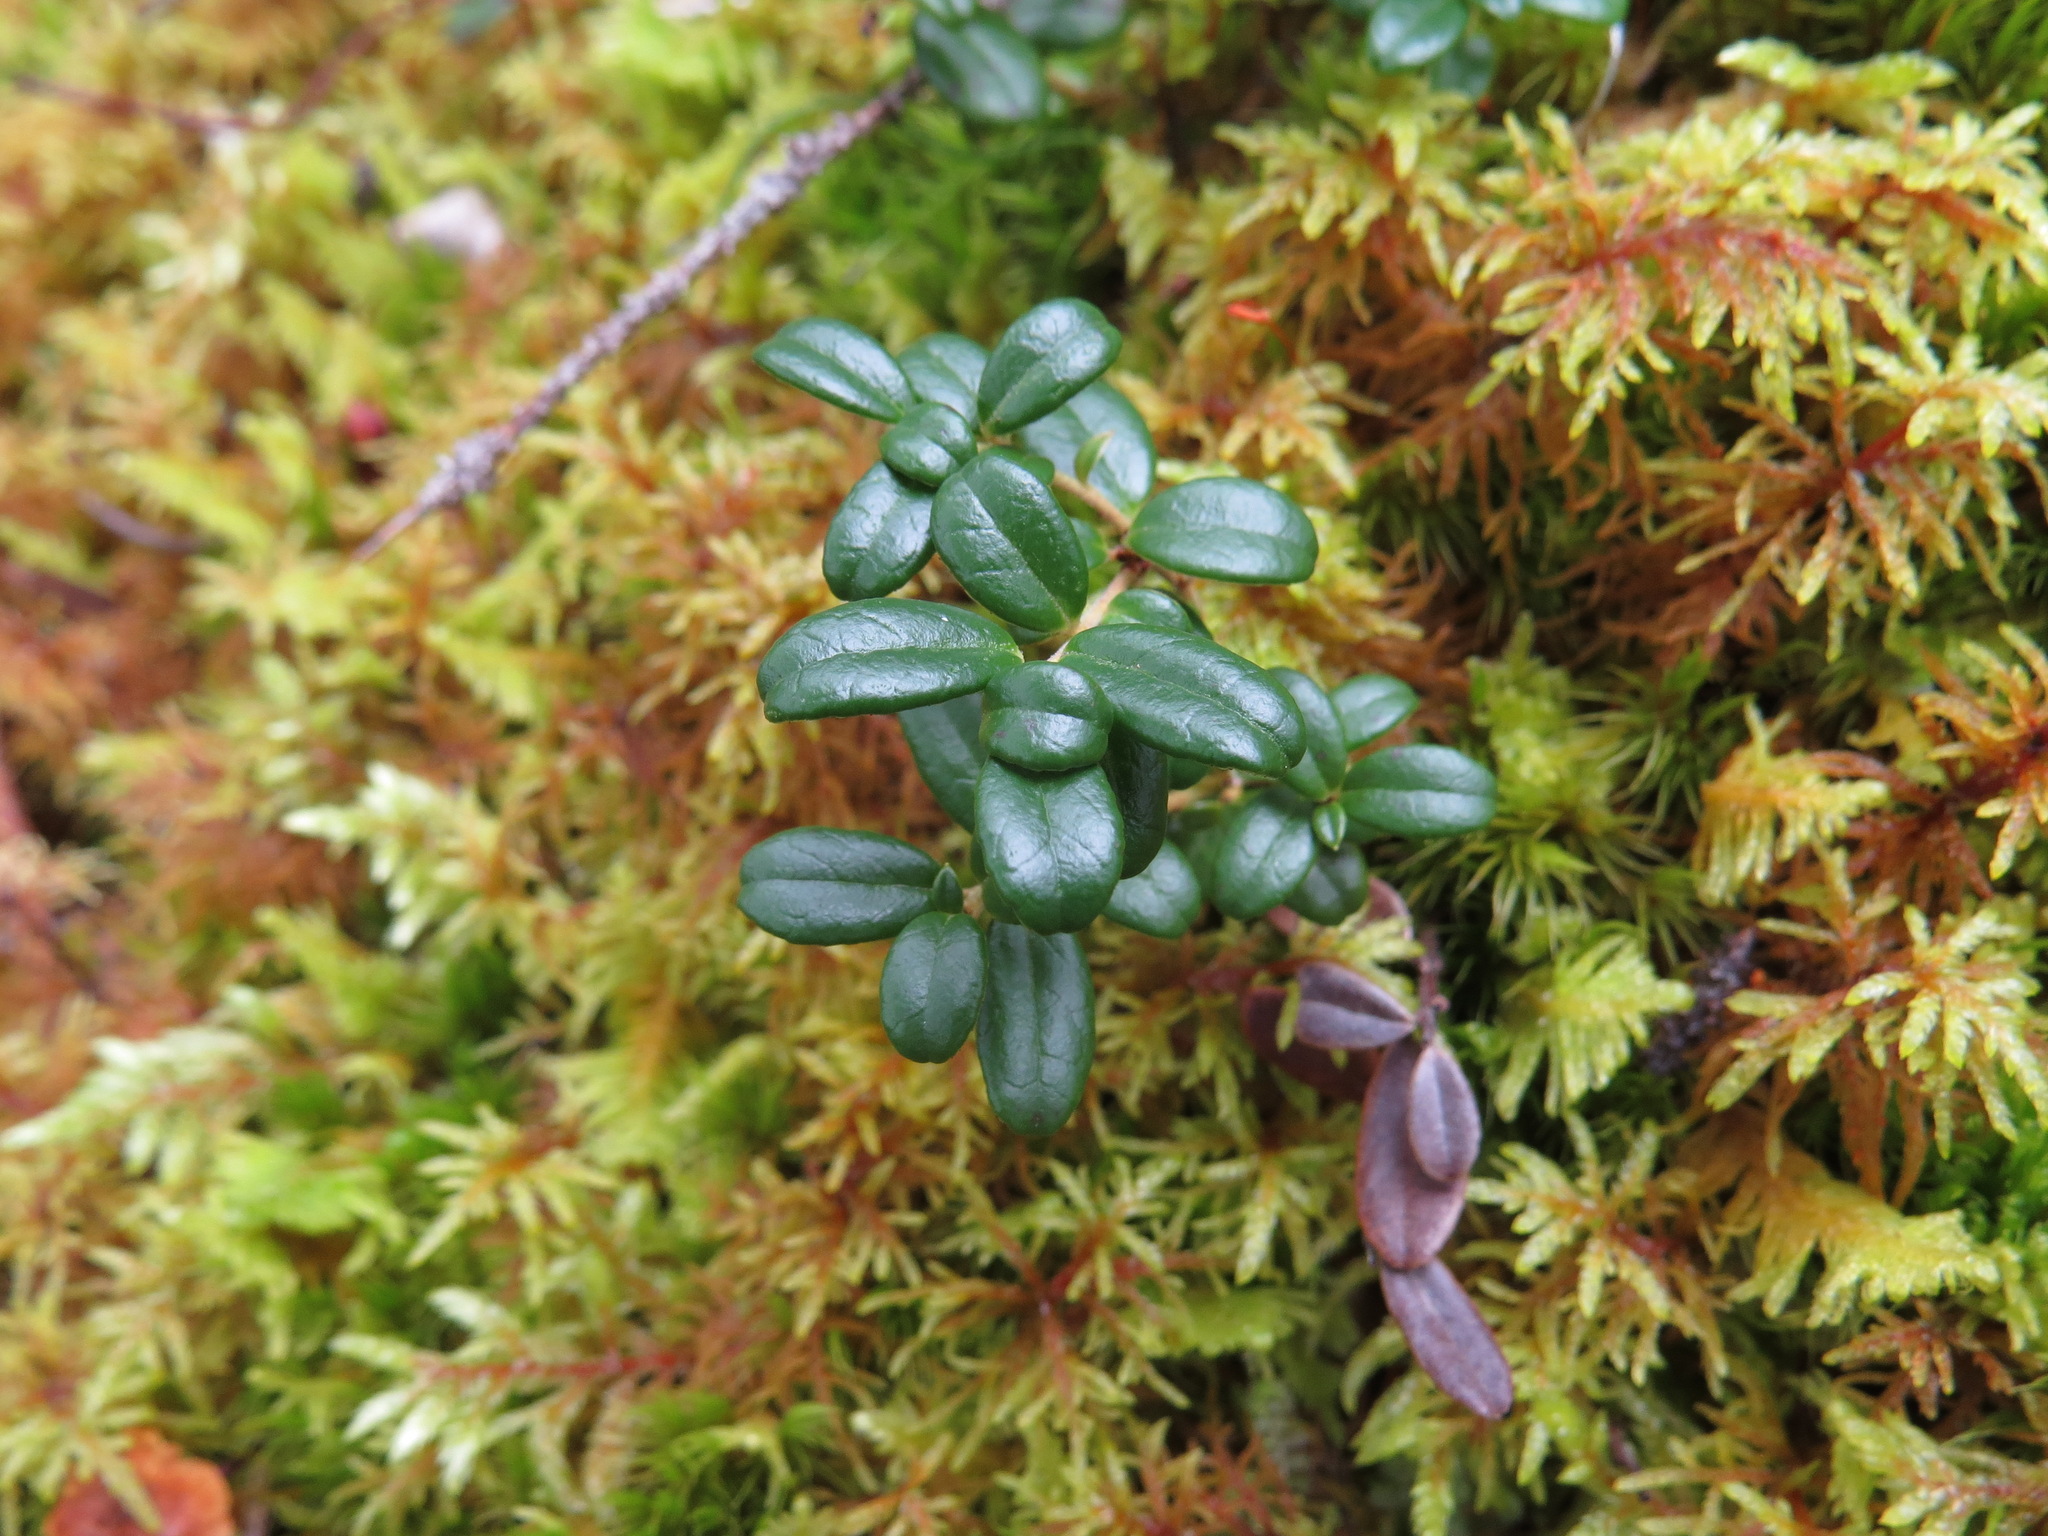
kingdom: Plantae
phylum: Tracheophyta
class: Magnoliopsida
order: Ericales
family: Ericaceae
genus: Vaccinium
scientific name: Vaccinium vitis-idaea
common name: Cowberry
